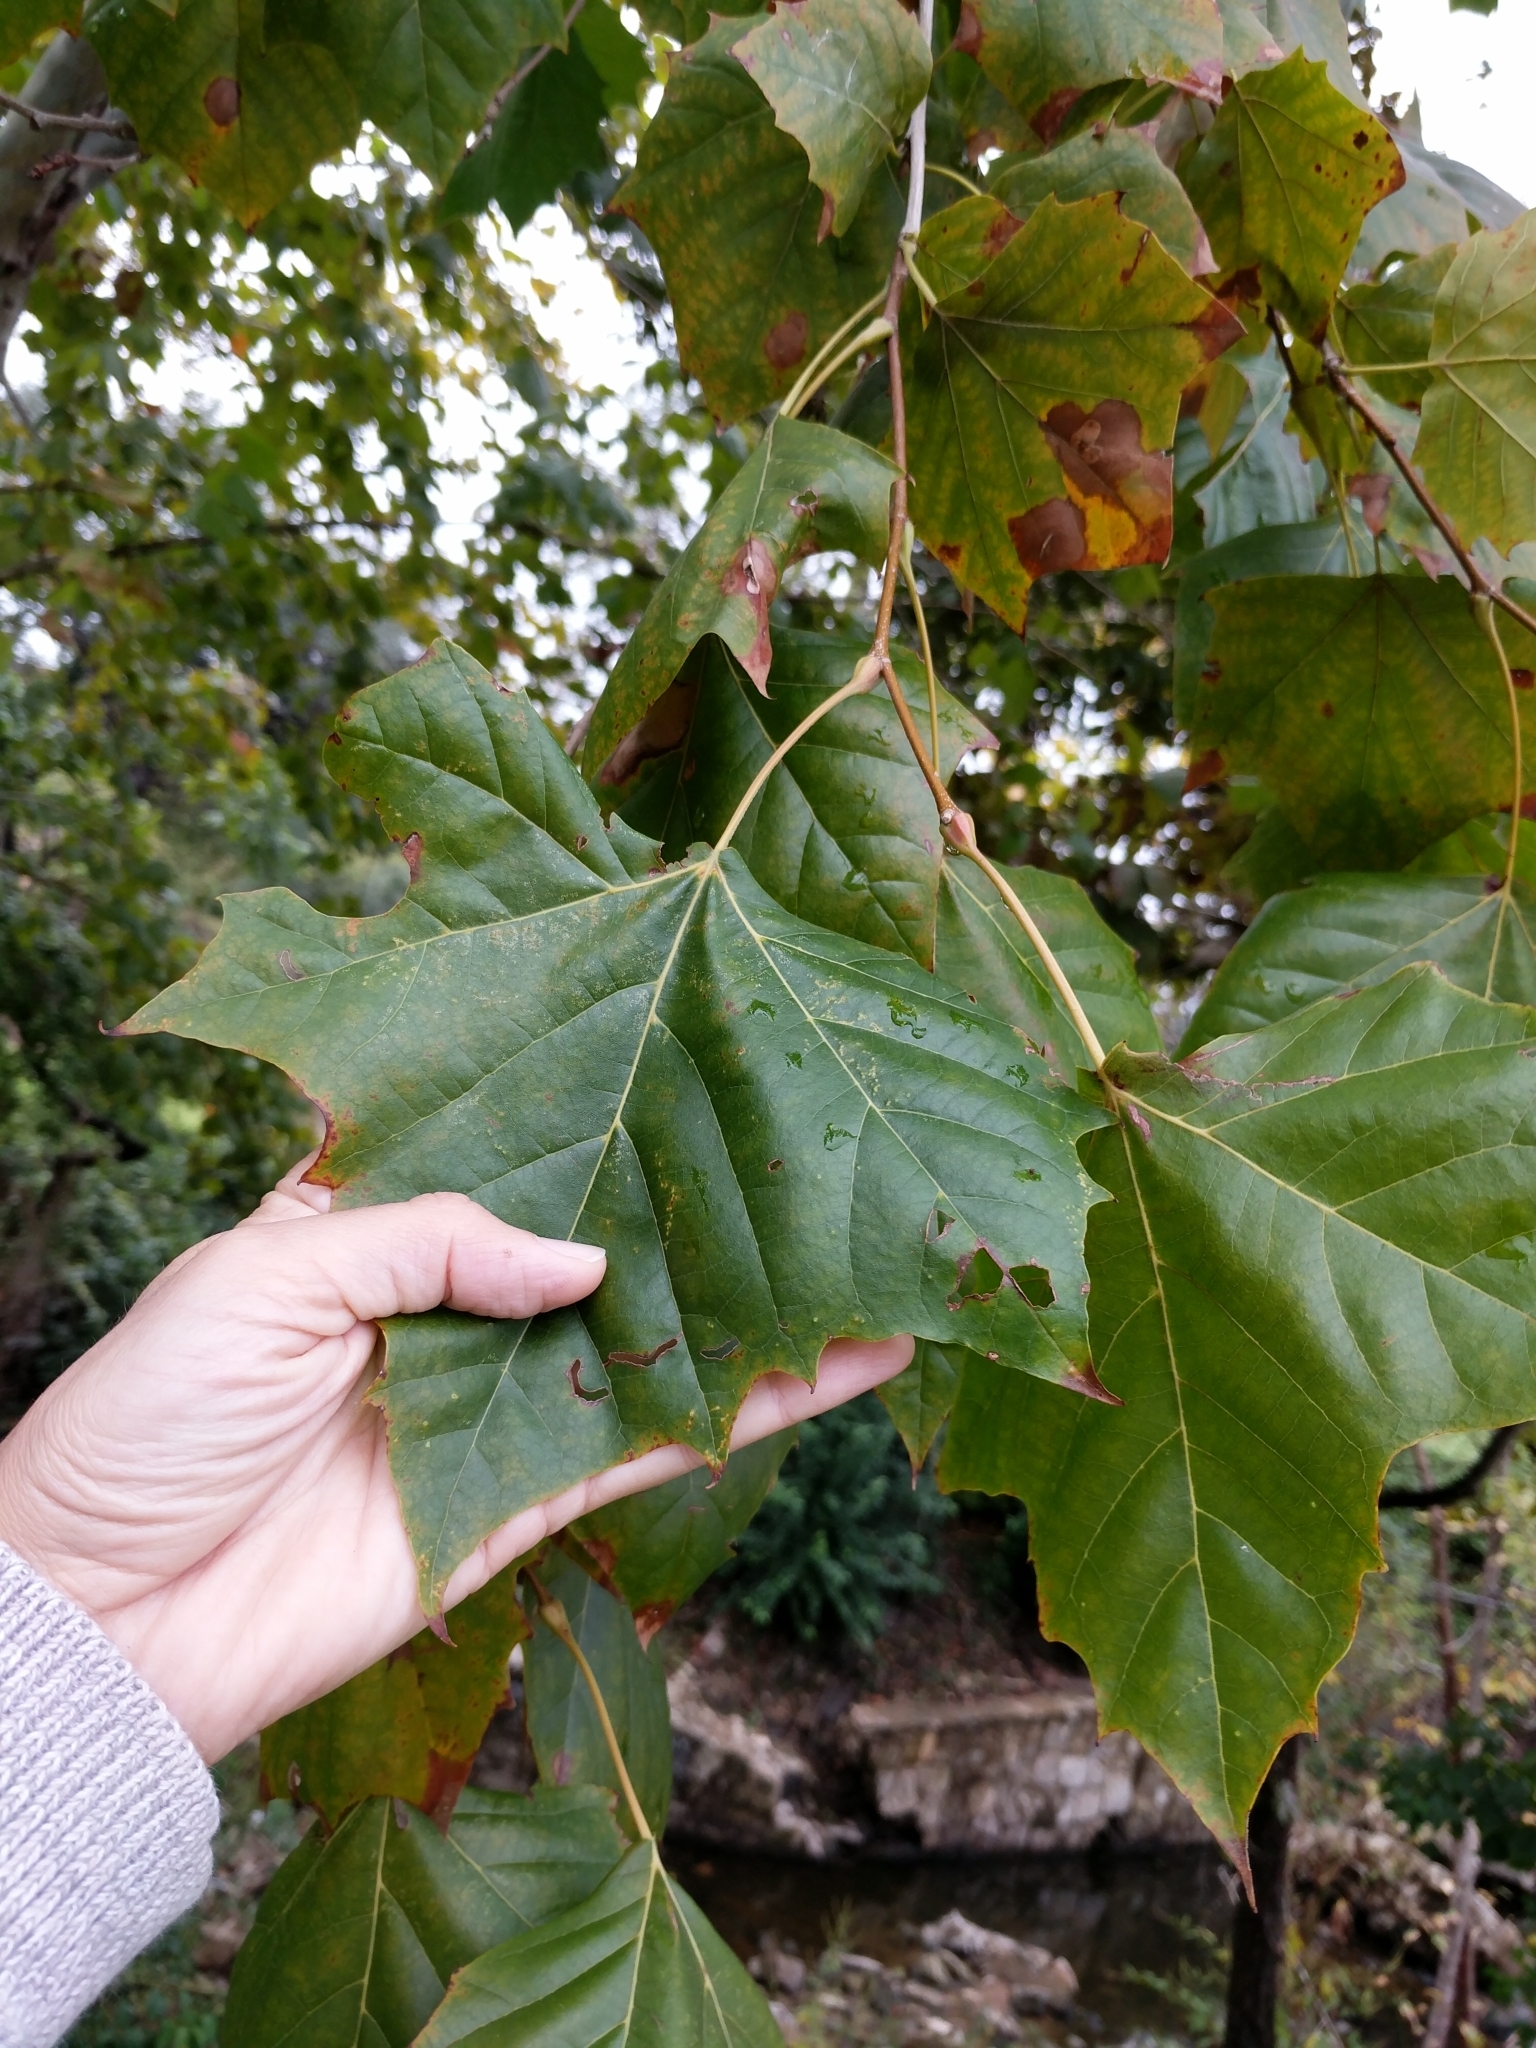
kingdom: Plantae
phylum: Tracheophyta
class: Magnoliopsida
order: Proteales
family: Platanaceae
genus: Platanus
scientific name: Platanus occidentalis
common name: American sycamore
